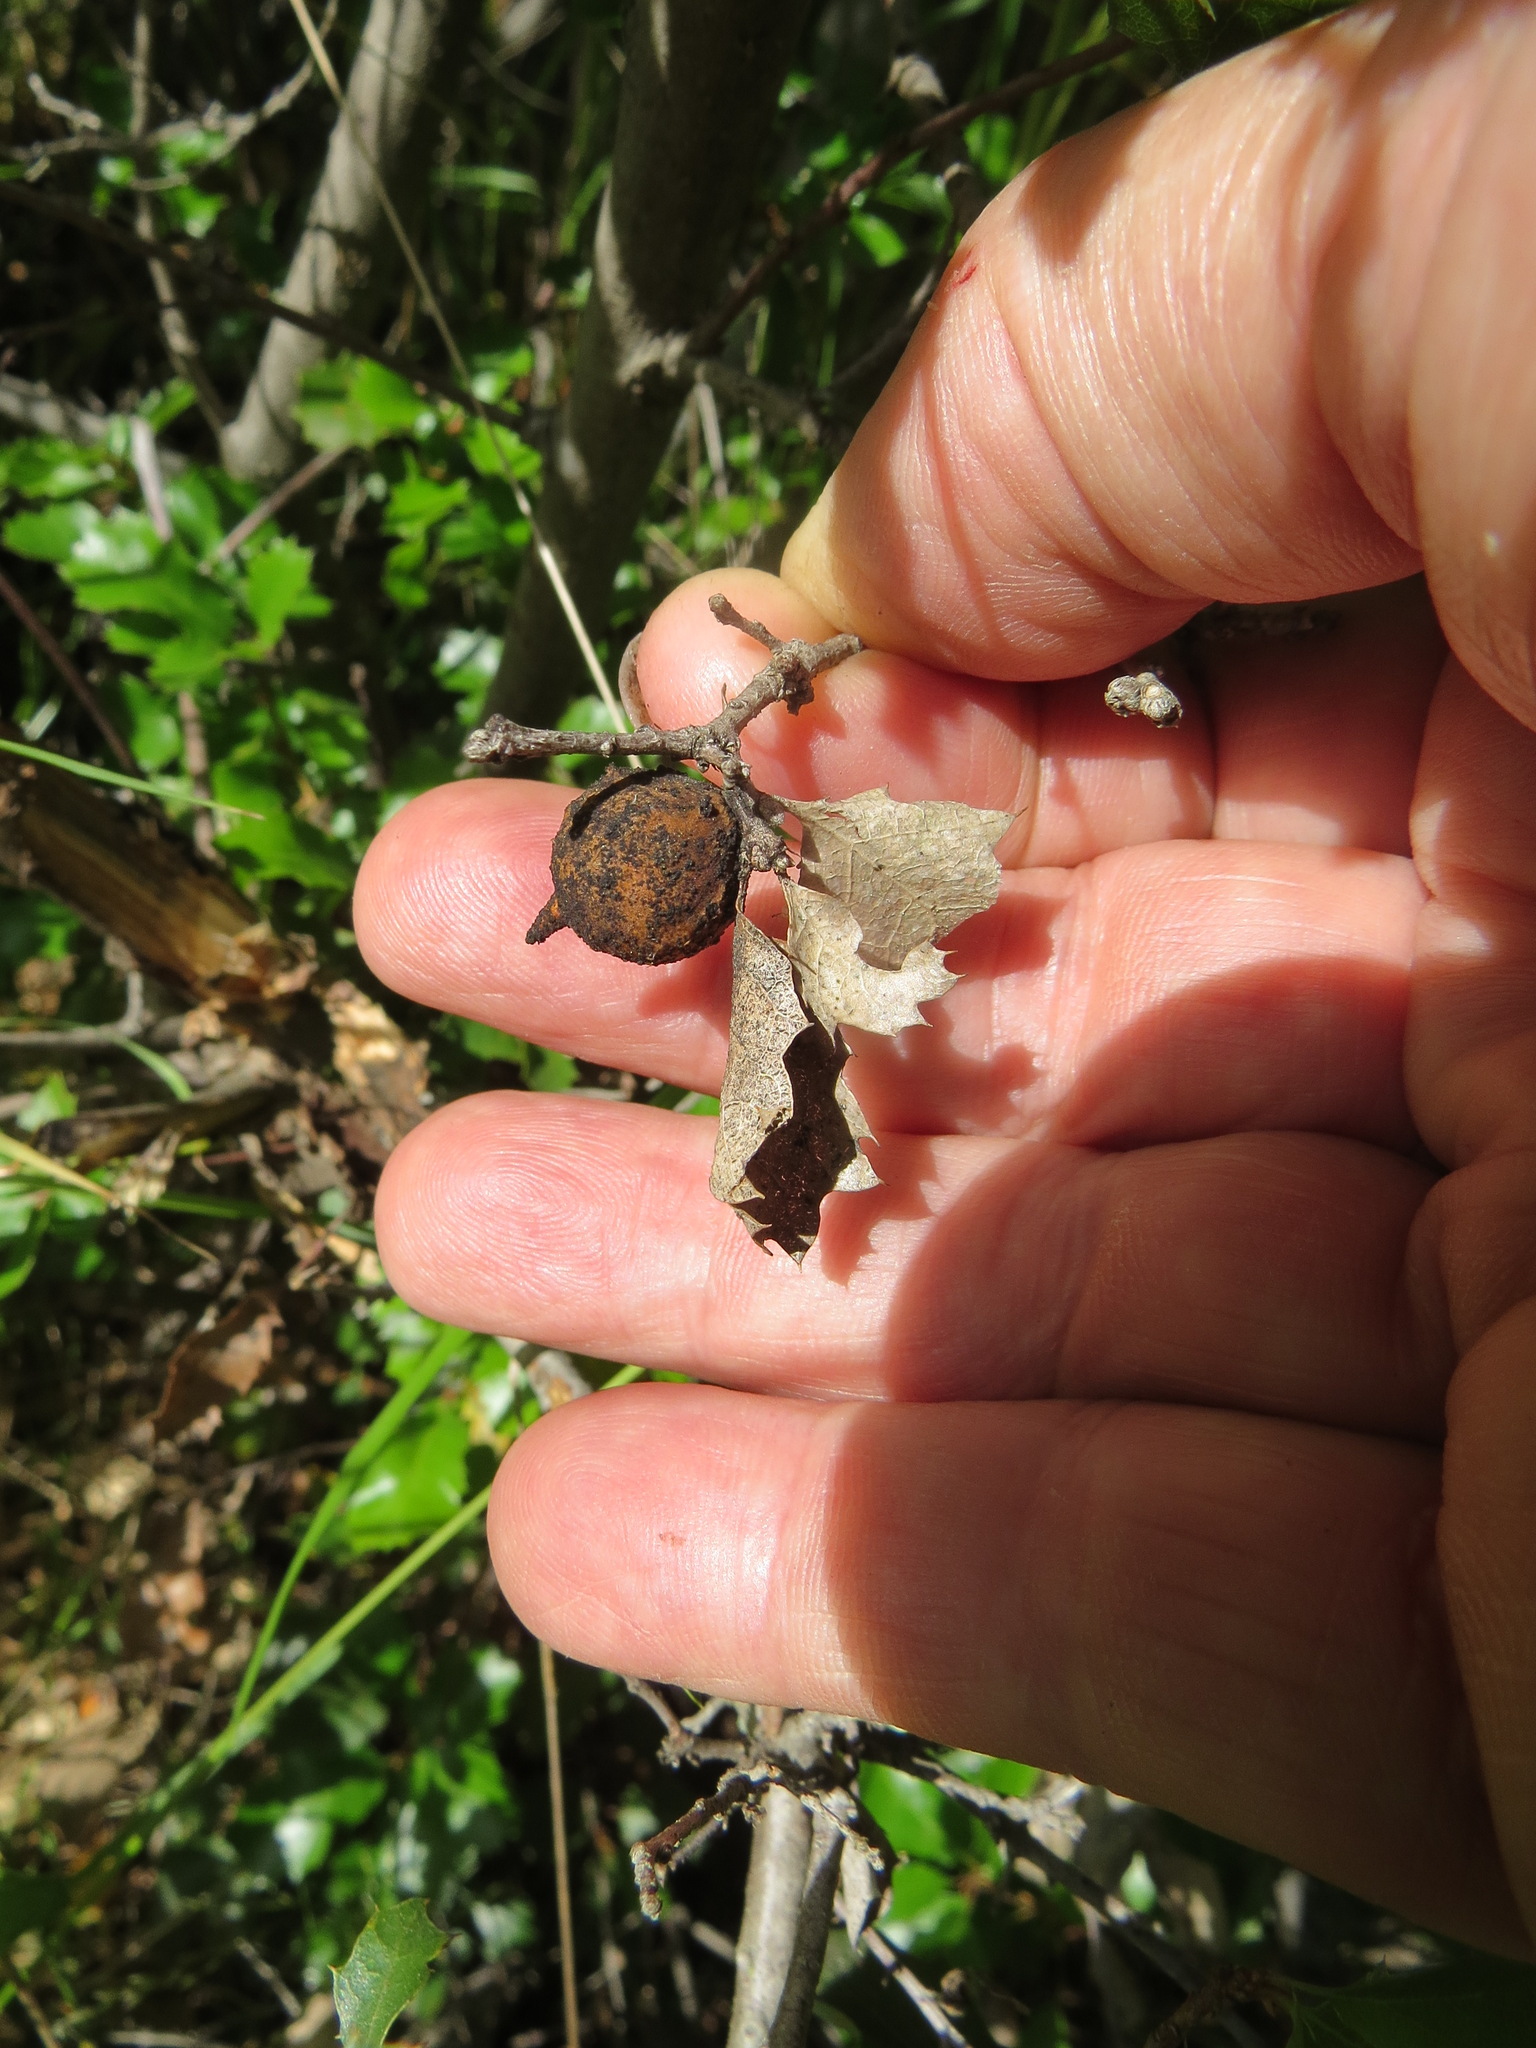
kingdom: Animalia
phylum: Arthropoda
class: Insecta
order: Hymenoptera
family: Cynipidae
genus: Burnettweldia
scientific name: Burnettweldia
